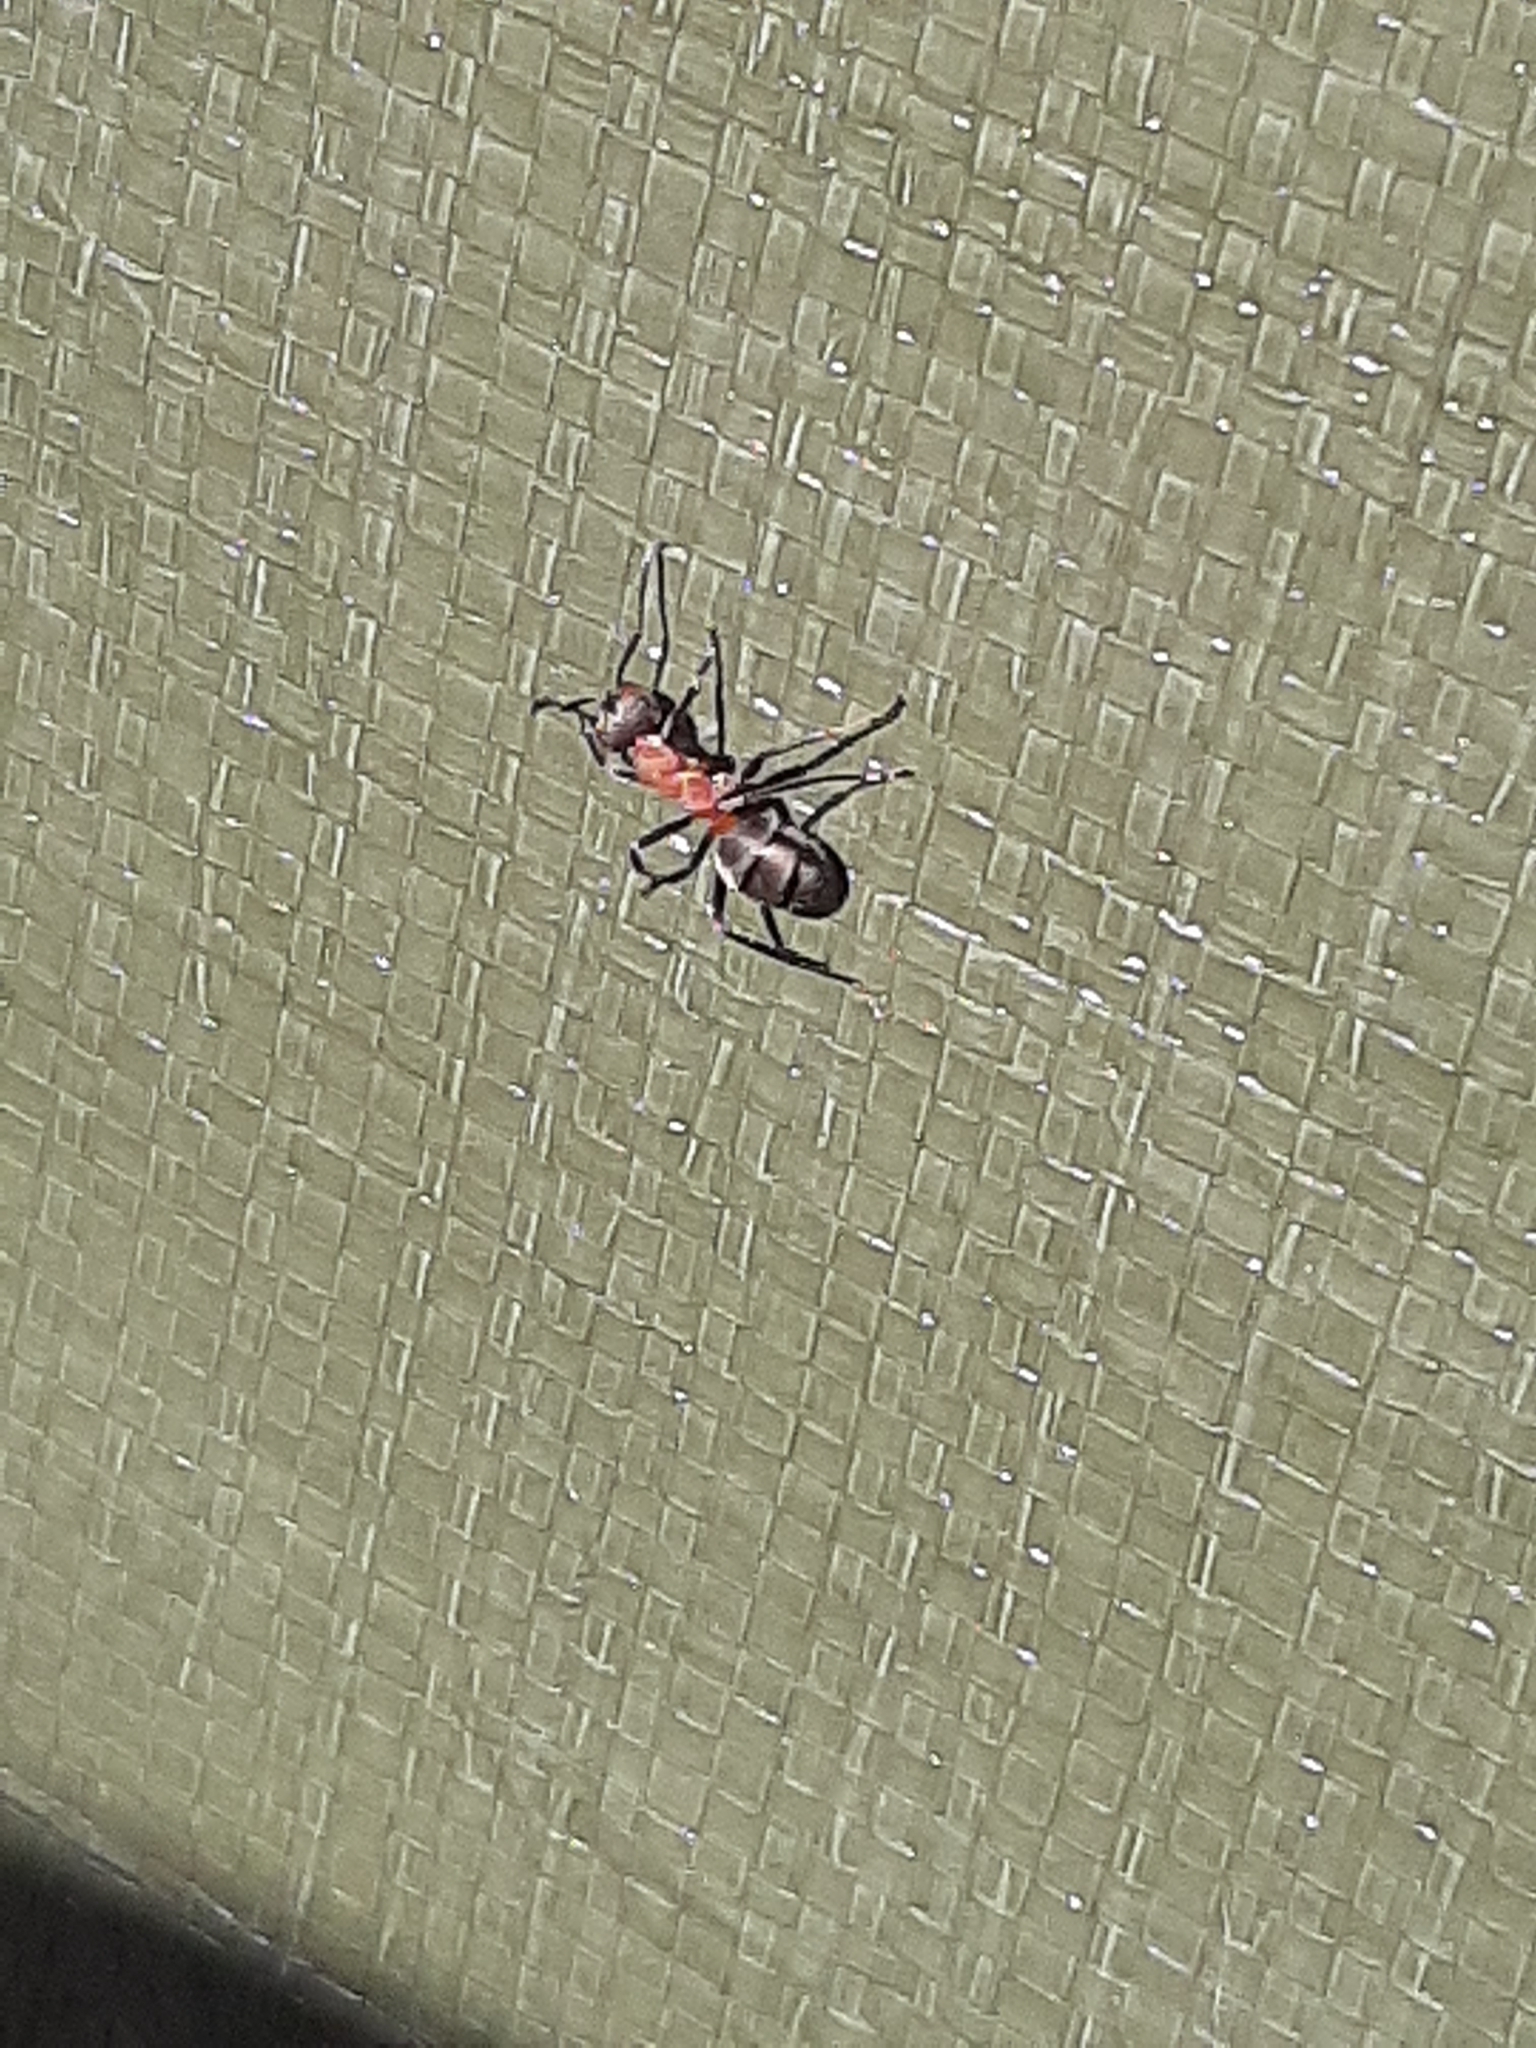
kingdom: Animalia
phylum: Arthropoda
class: Insecta
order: Hymenoptera
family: Formicidae
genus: Formica
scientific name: Formica rufa
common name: Red wood ant
